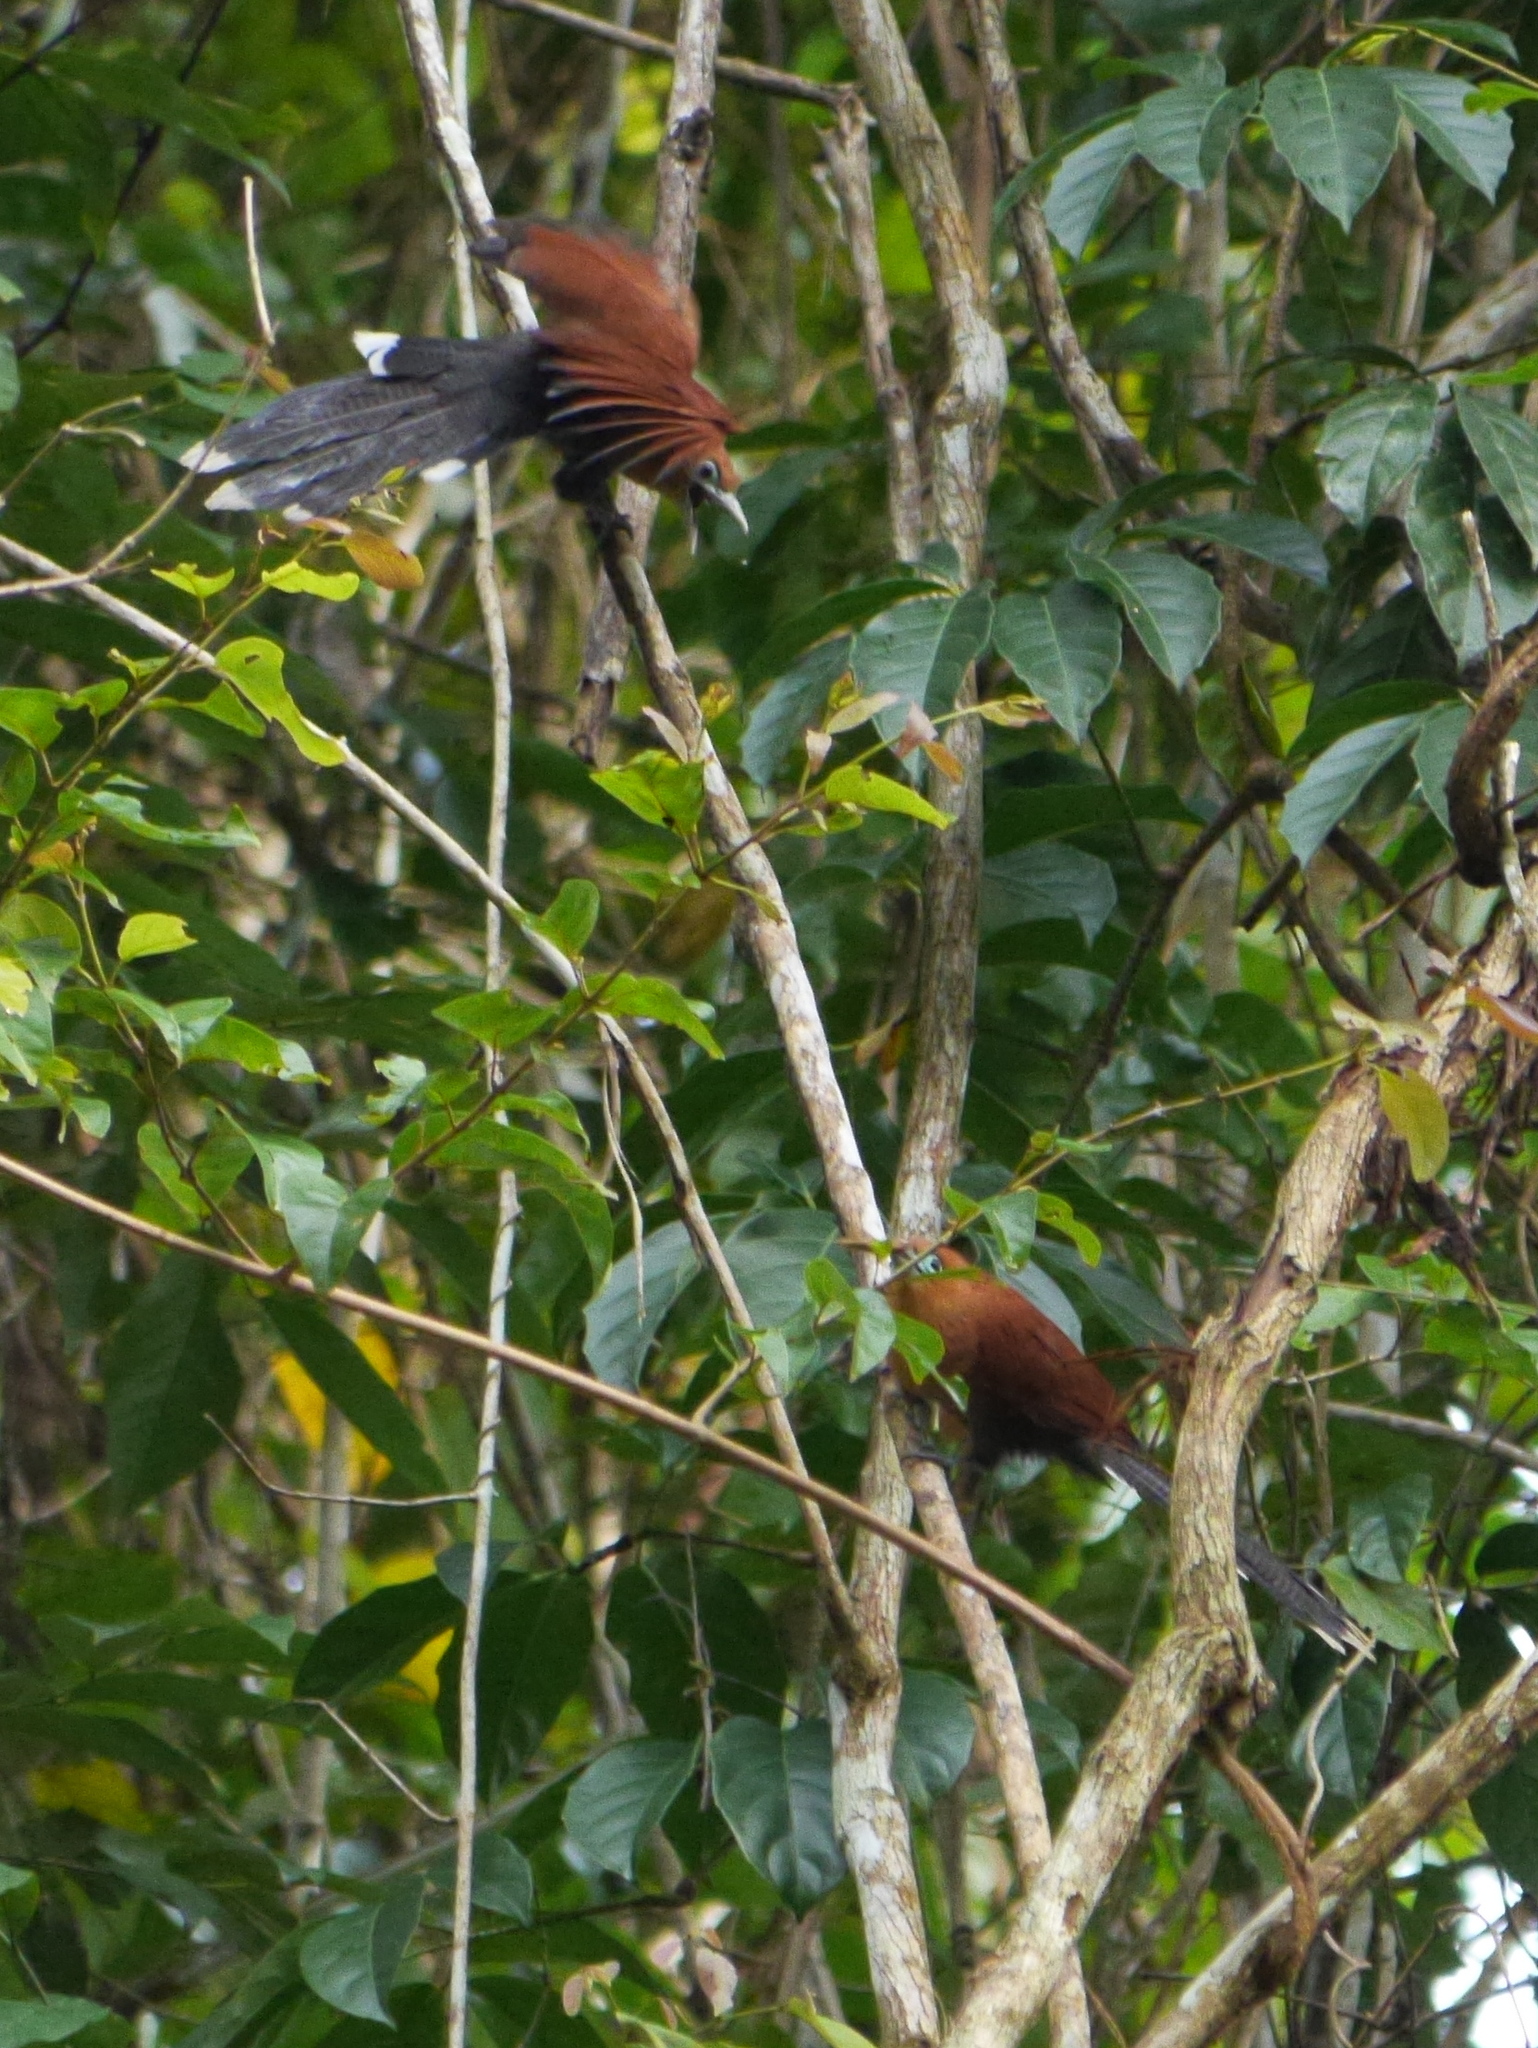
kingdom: Animalia
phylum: Chordata
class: Aves
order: Cuculiformes
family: Cuculidae
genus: Rhinortha
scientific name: Rhinortha chlorophaea
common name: Raffles's malkoha
